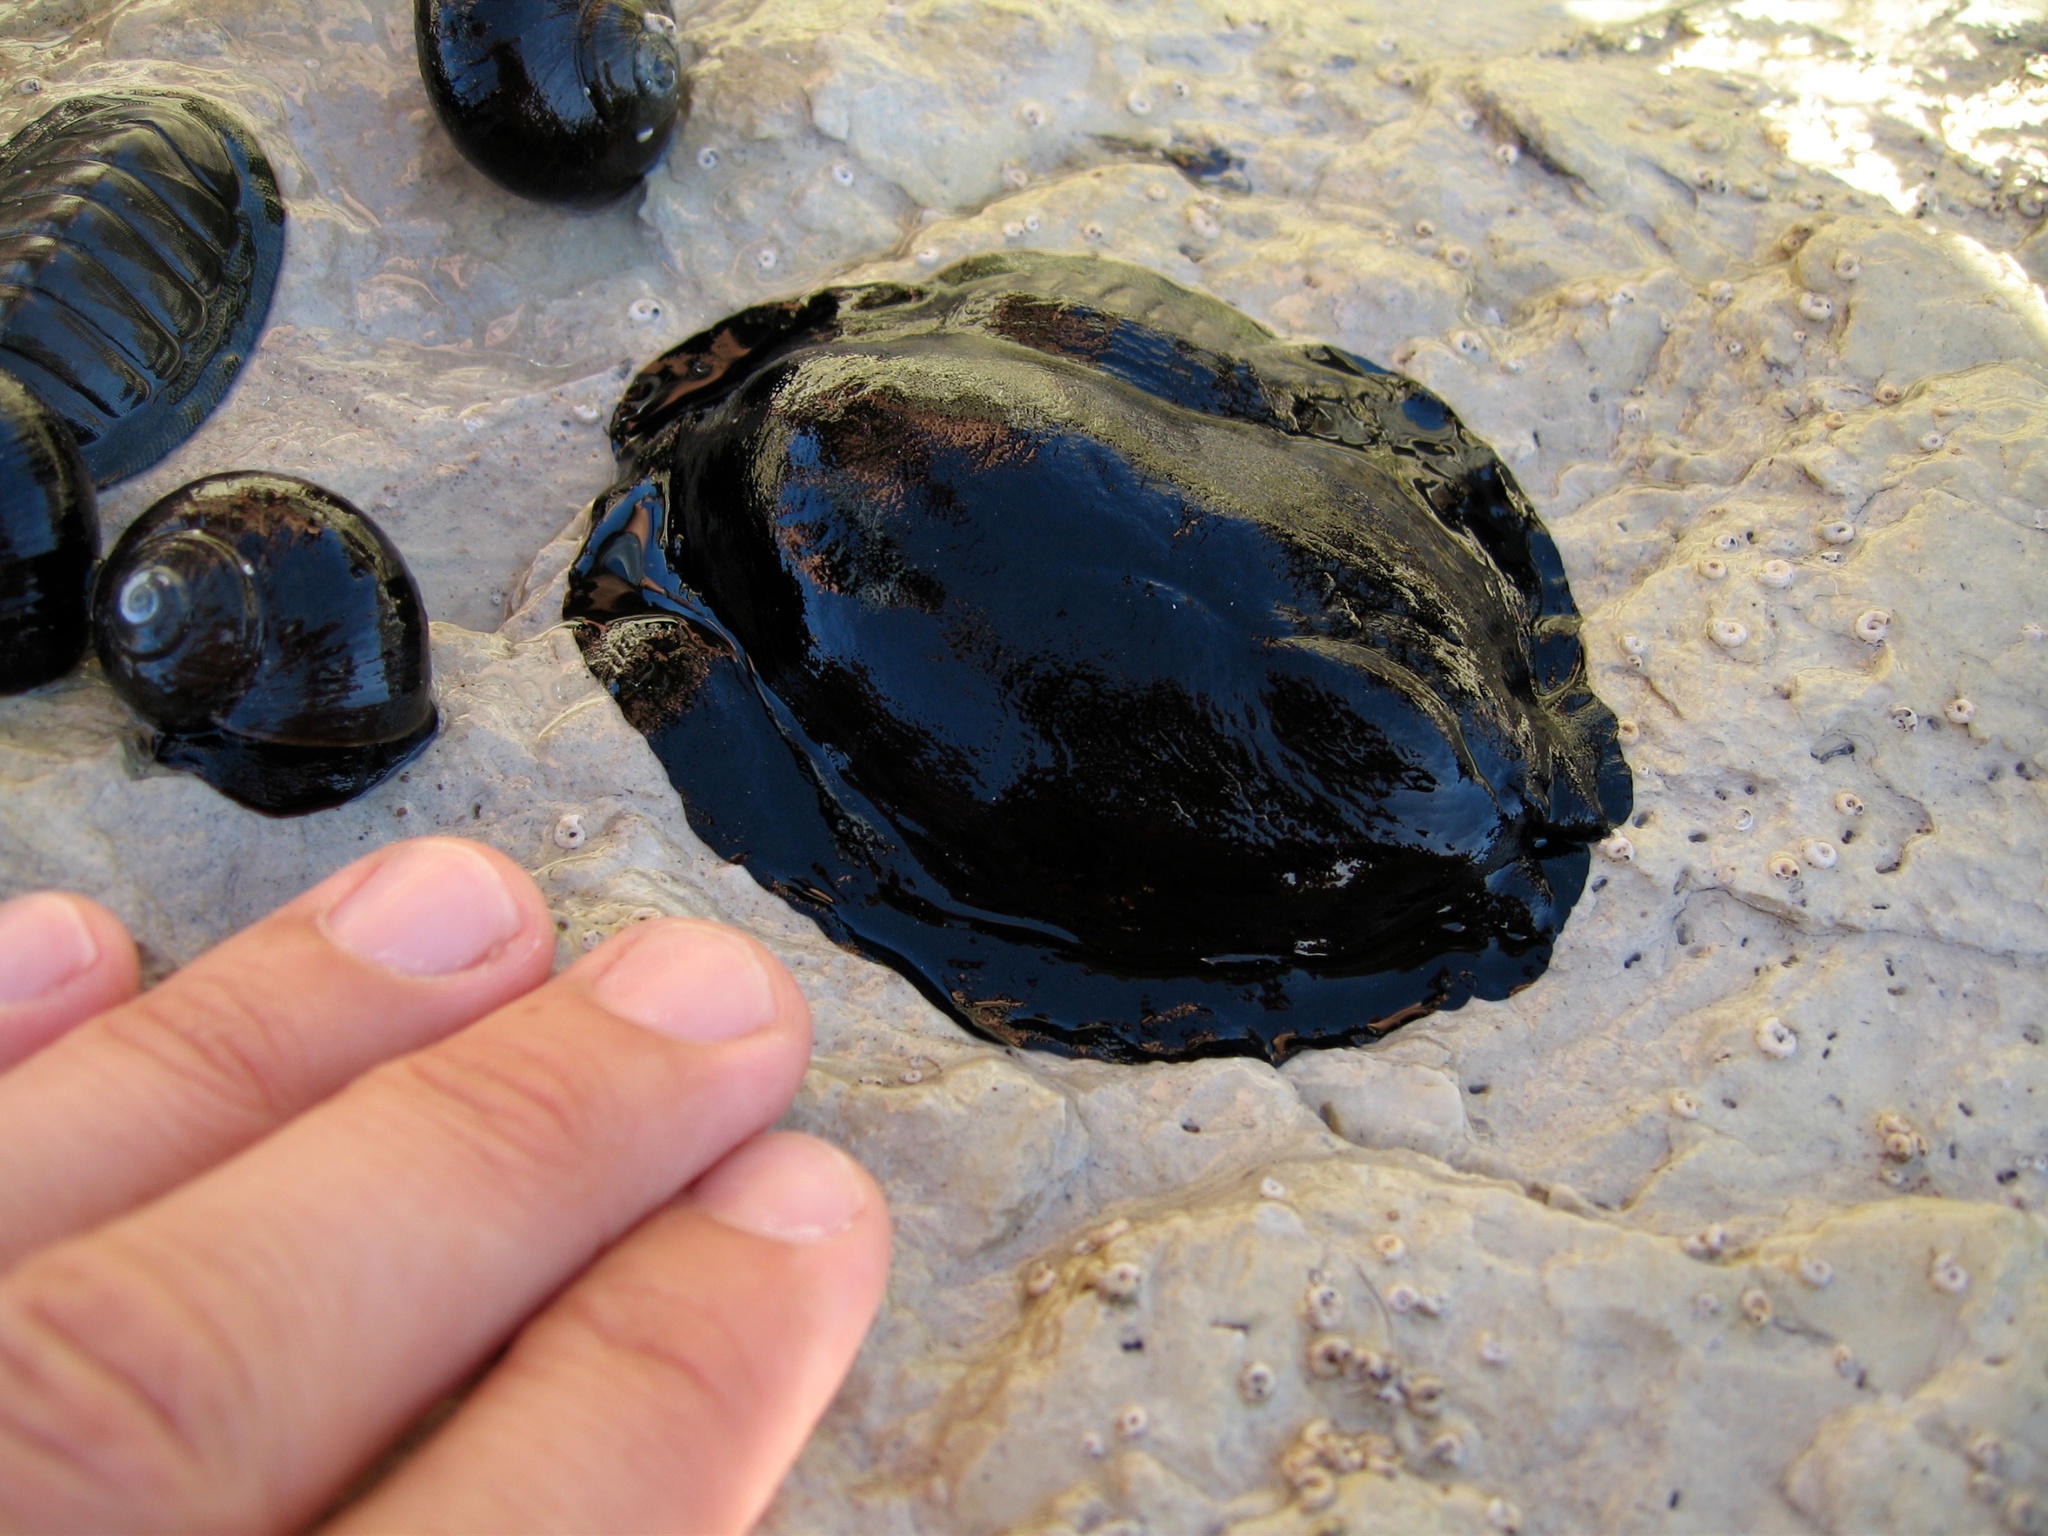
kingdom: Animalia
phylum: Mollusca
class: Gastropoda
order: Lepetellida
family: Fissurellidae
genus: Scutus
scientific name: Scutus breviculus
